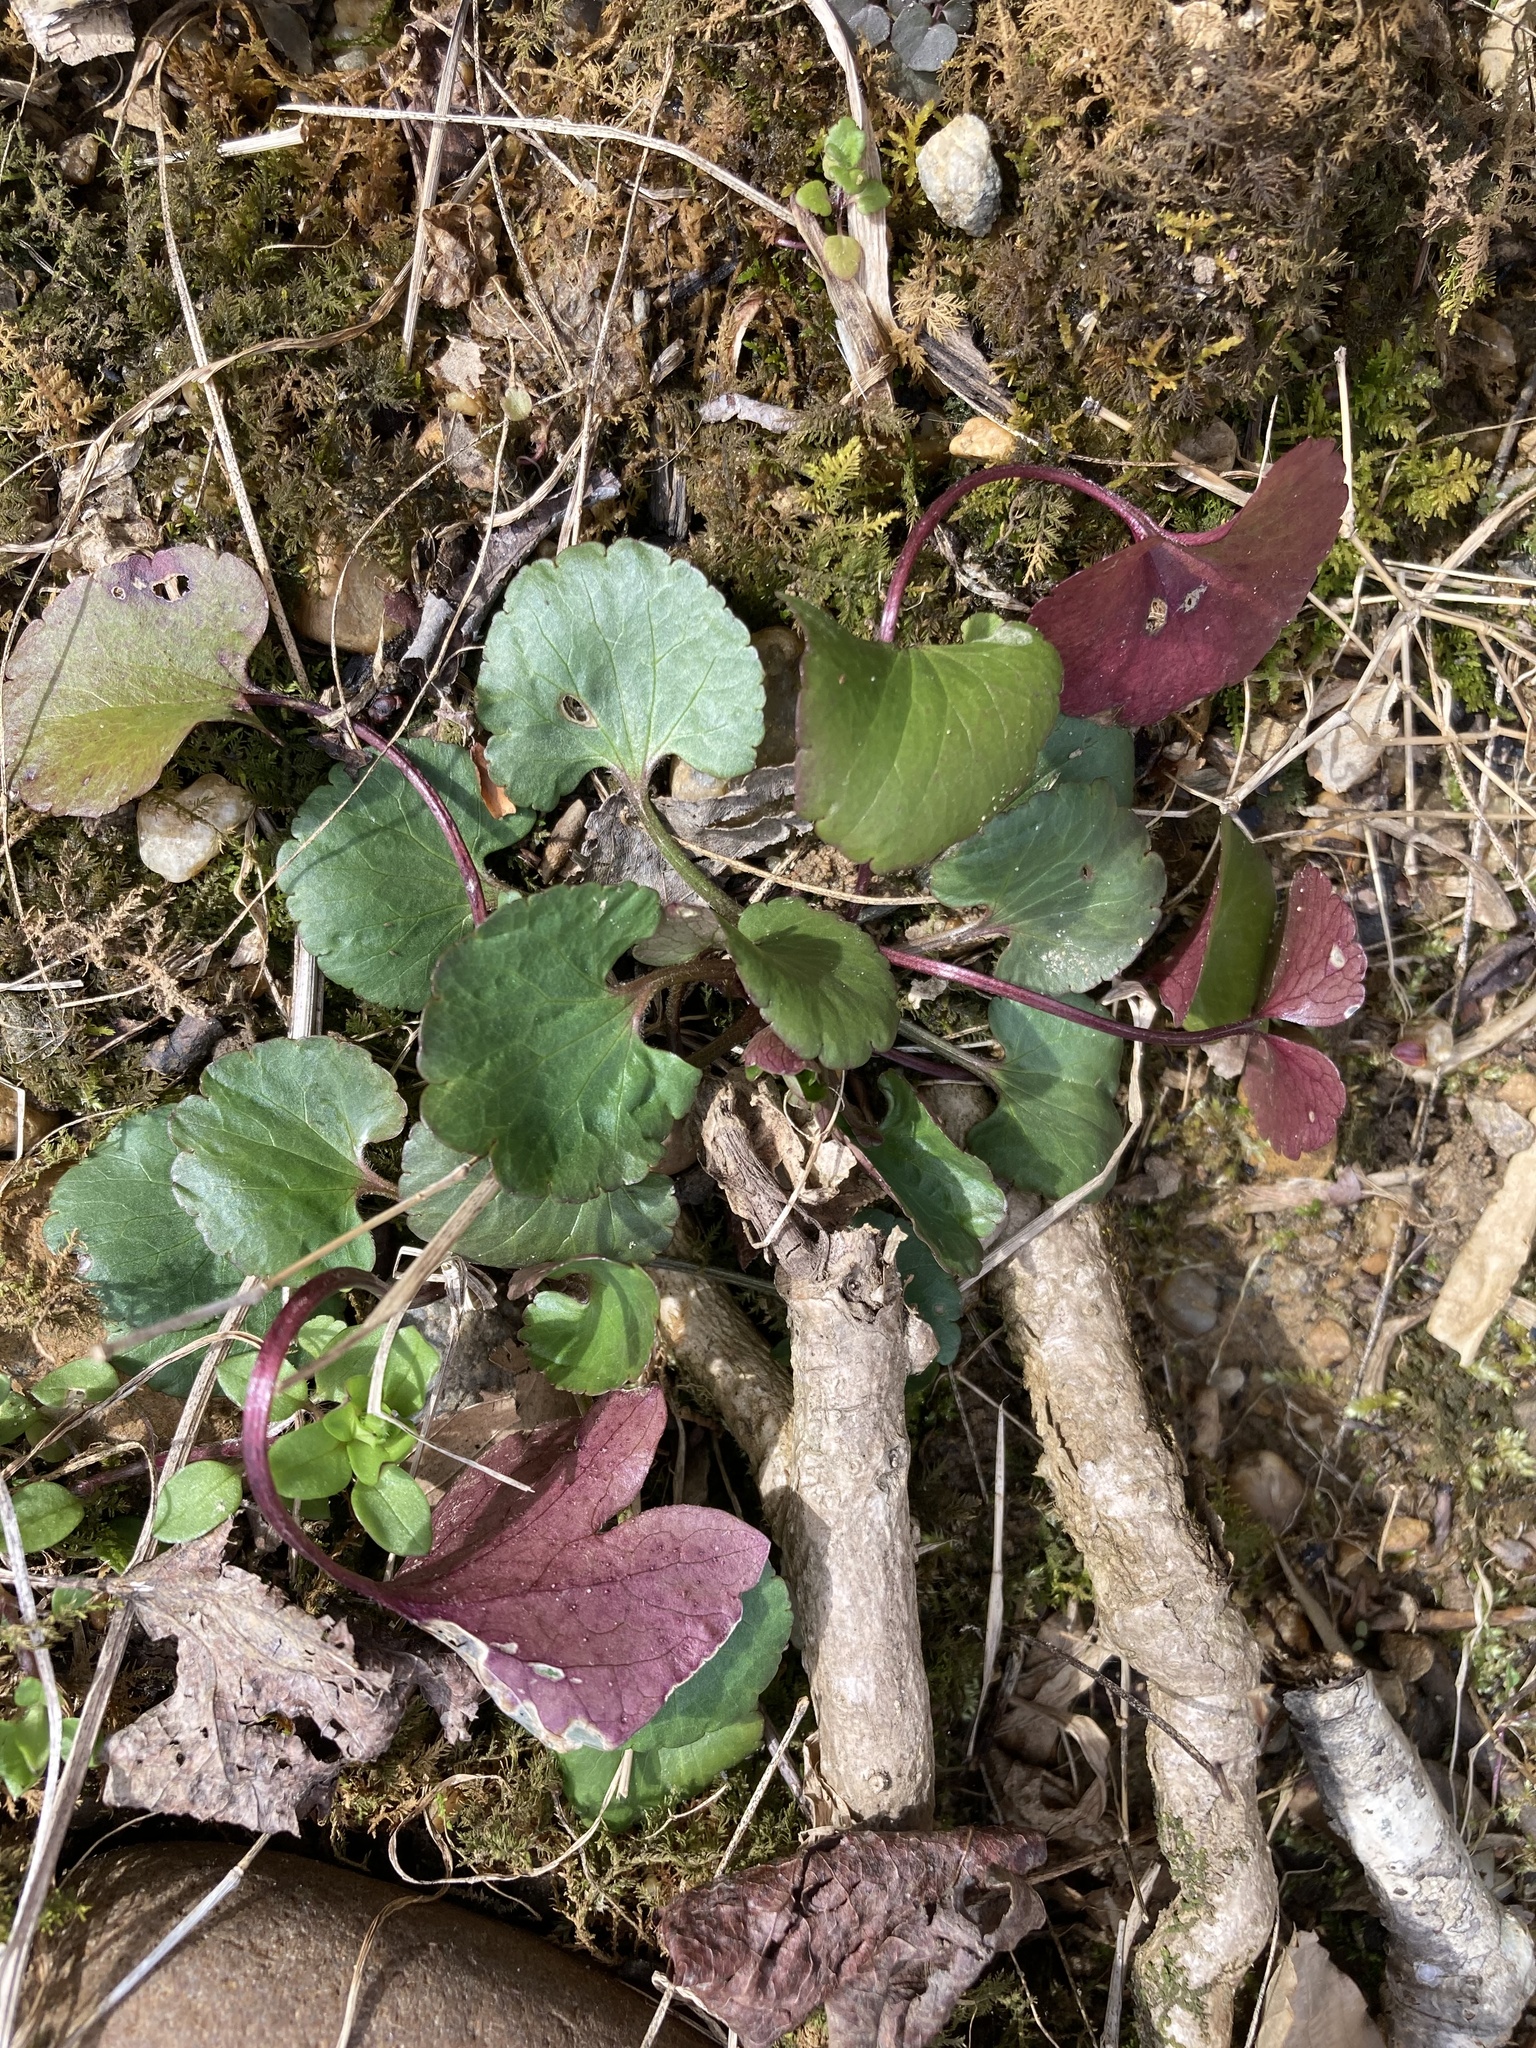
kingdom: Plantae
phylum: Tracheophyta
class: Magnoliopsida
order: Ranunculales
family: Ranunculaceae
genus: Ranunculus
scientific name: Ranunculus abortivus
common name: Early wood buttercup
